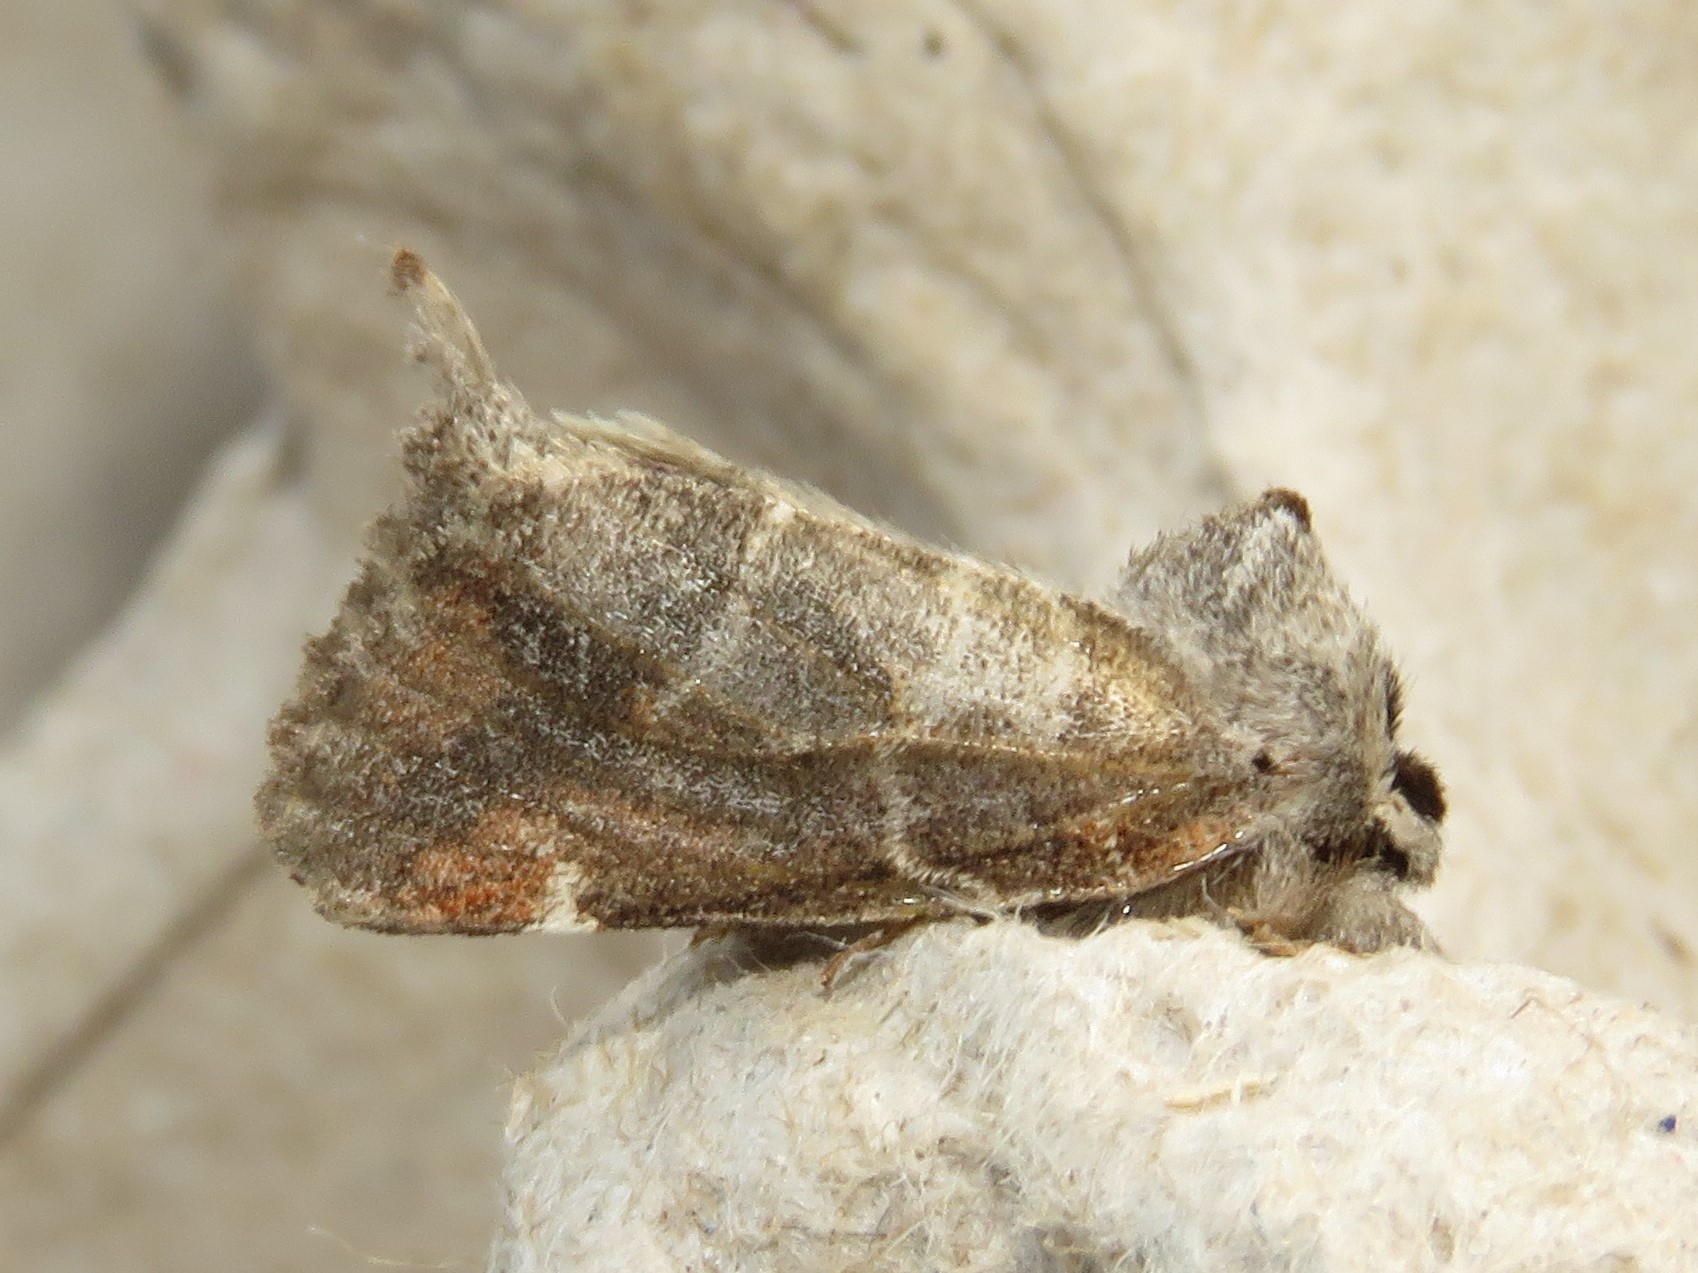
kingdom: Animalia
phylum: Arthropoda
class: Insecta
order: Lepidoptera
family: Notodontidae
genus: Clostera
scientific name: Clostera apicalis
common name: Apical prominent
